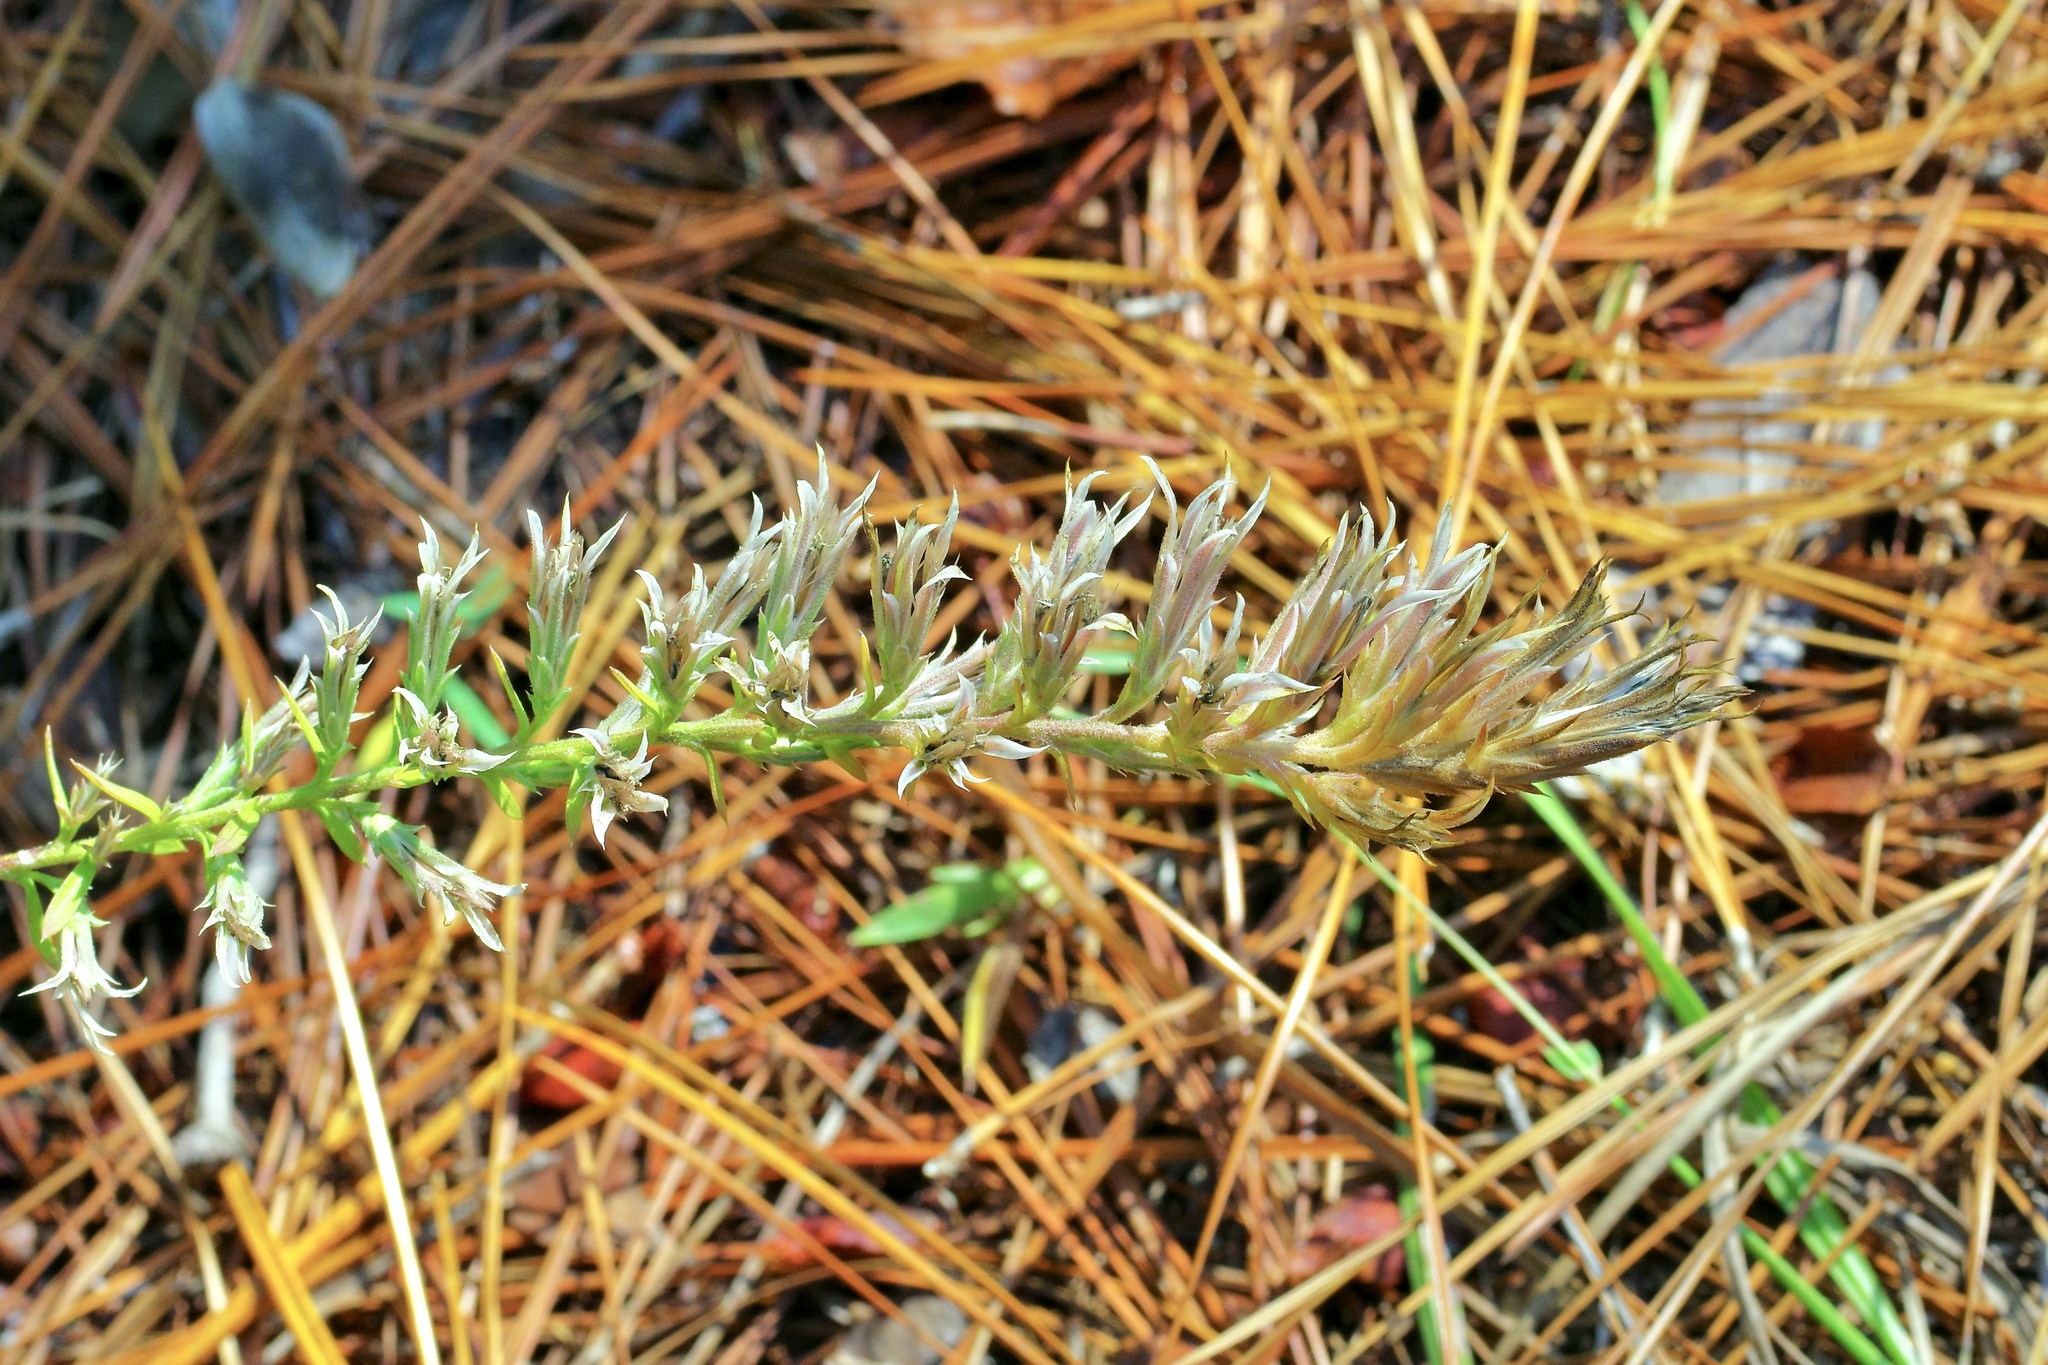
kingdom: Plantae
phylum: Tracheophyta
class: Magnoliopsida
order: Asterales
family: Asteraceae
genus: Liatris
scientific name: Liatris hesperelegans
